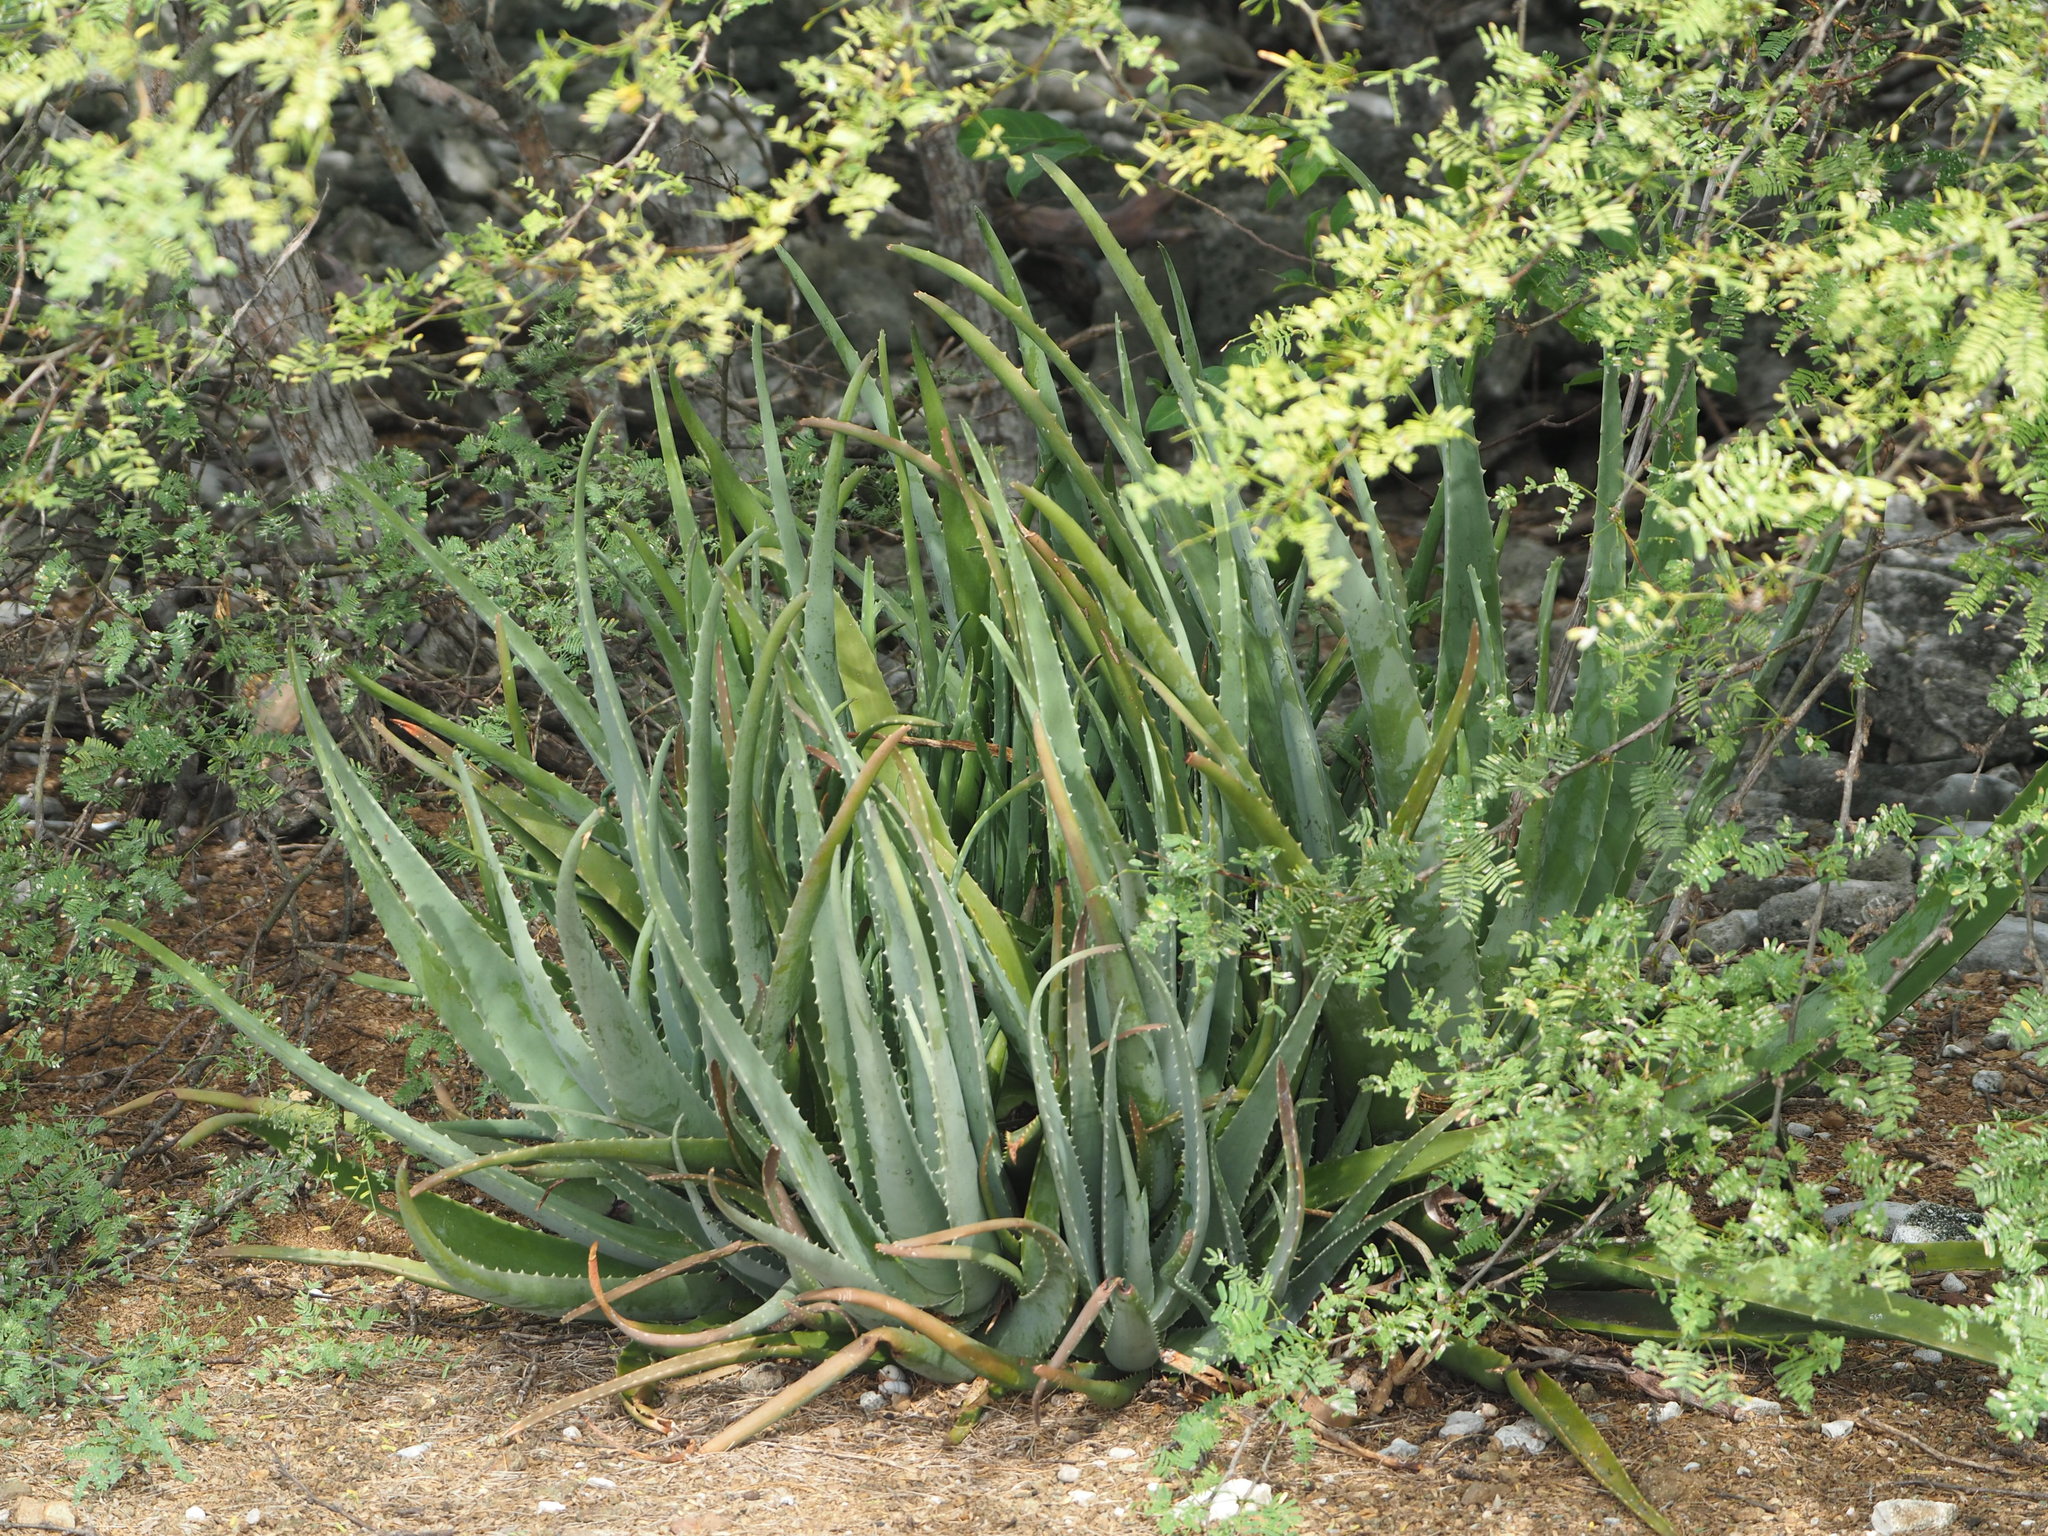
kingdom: Plantae
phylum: Tracheophyta
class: Liliopsida
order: Asparagales
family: Asphodelaceae
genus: Aloe
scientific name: Aloe vera
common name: Barbados aloe
